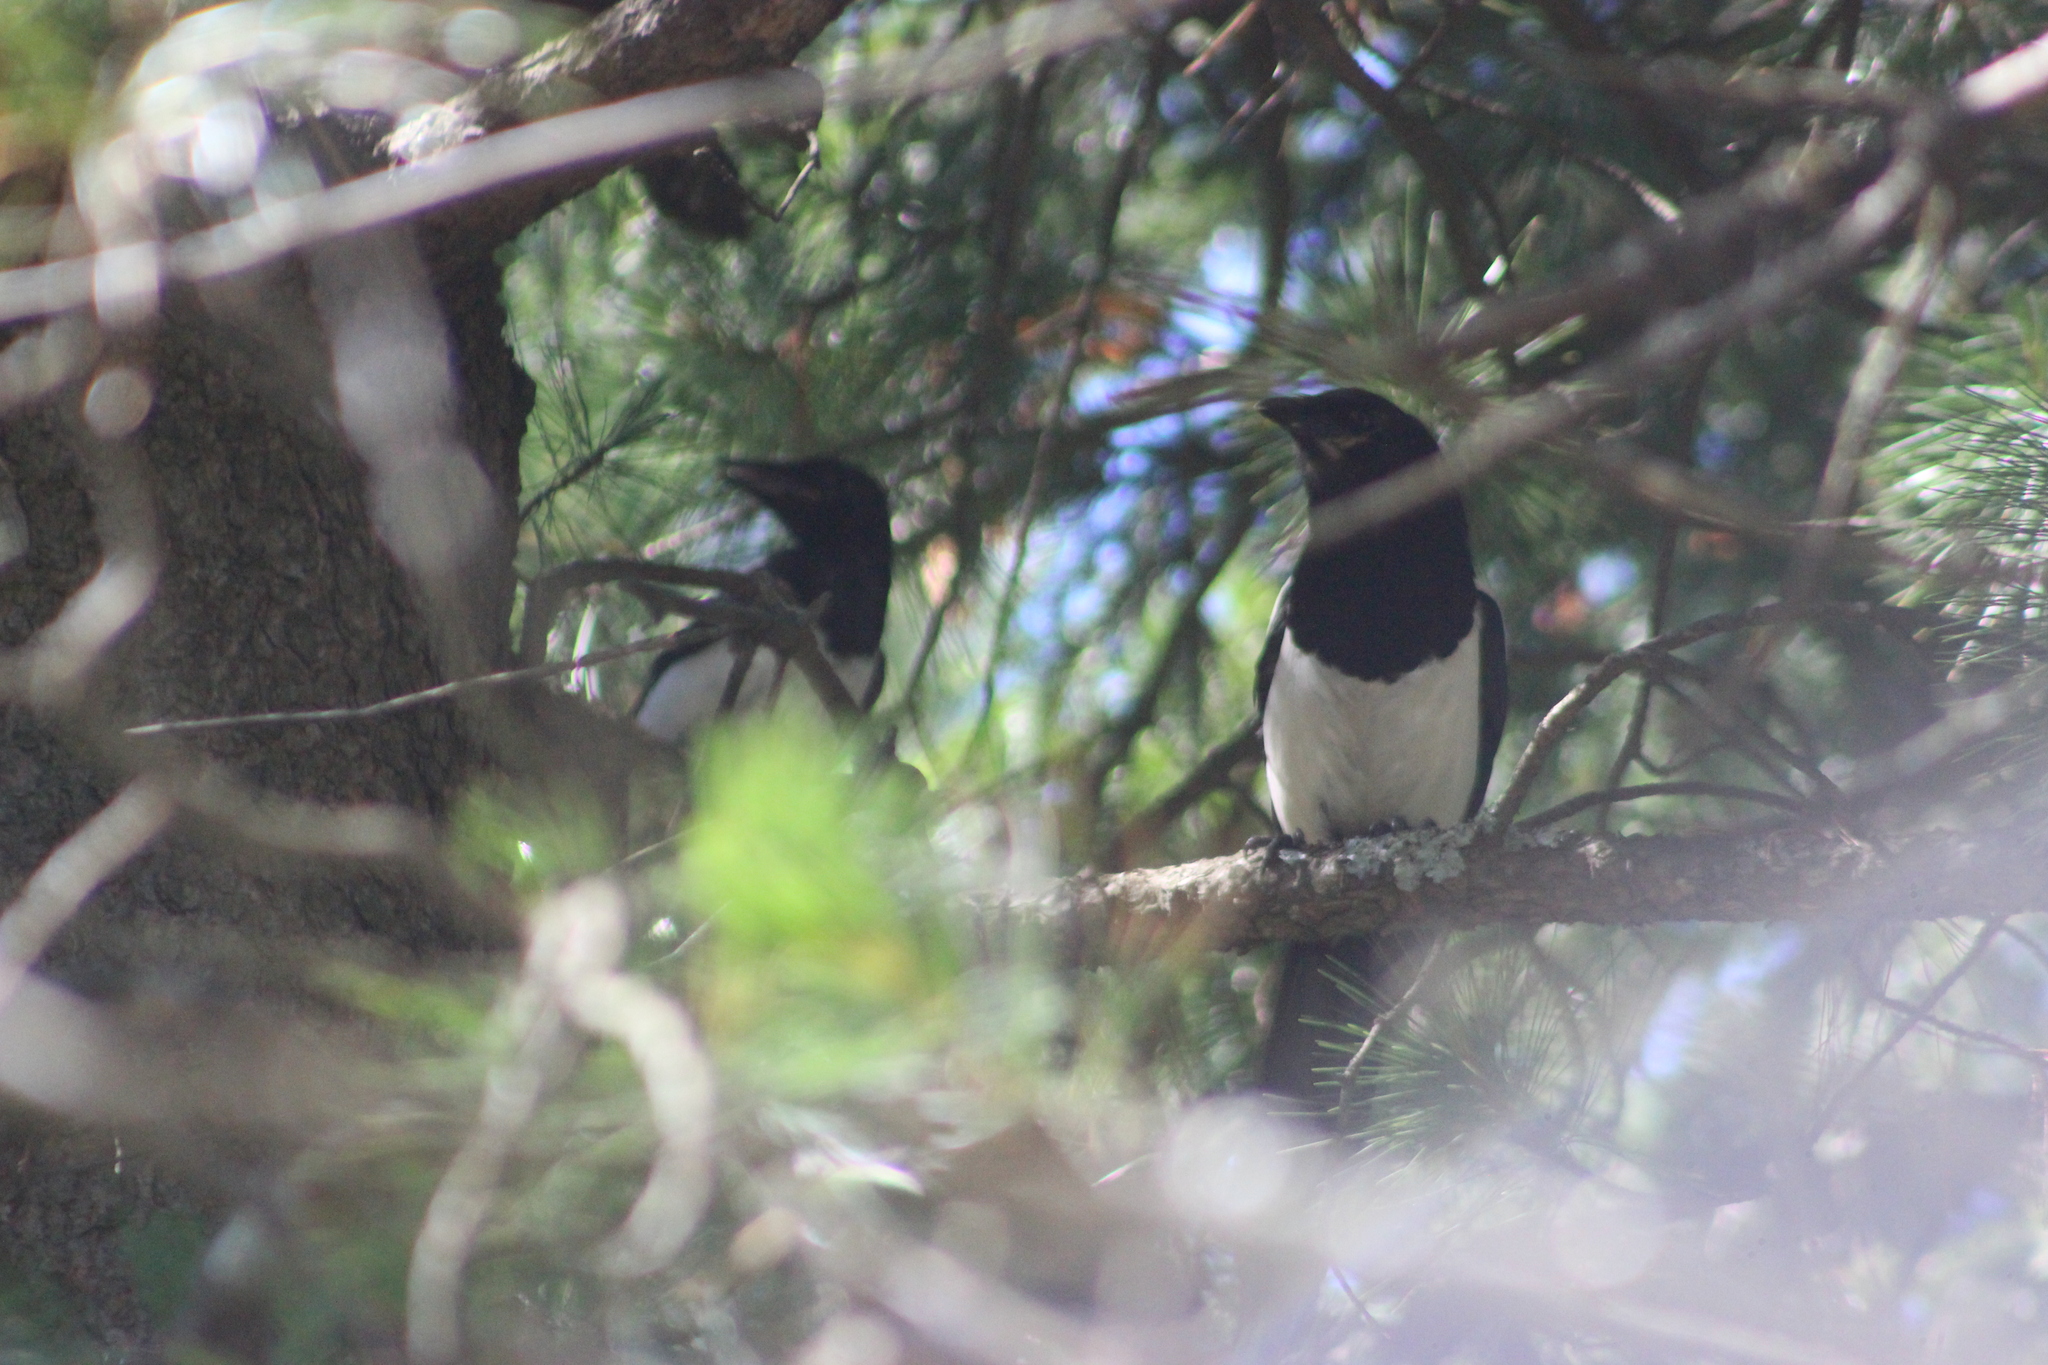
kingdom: Animalia
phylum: Chordata
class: Aves
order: Passeriformes
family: Corvidae
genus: Pica
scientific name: Pica pica
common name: Eurasian magpie
